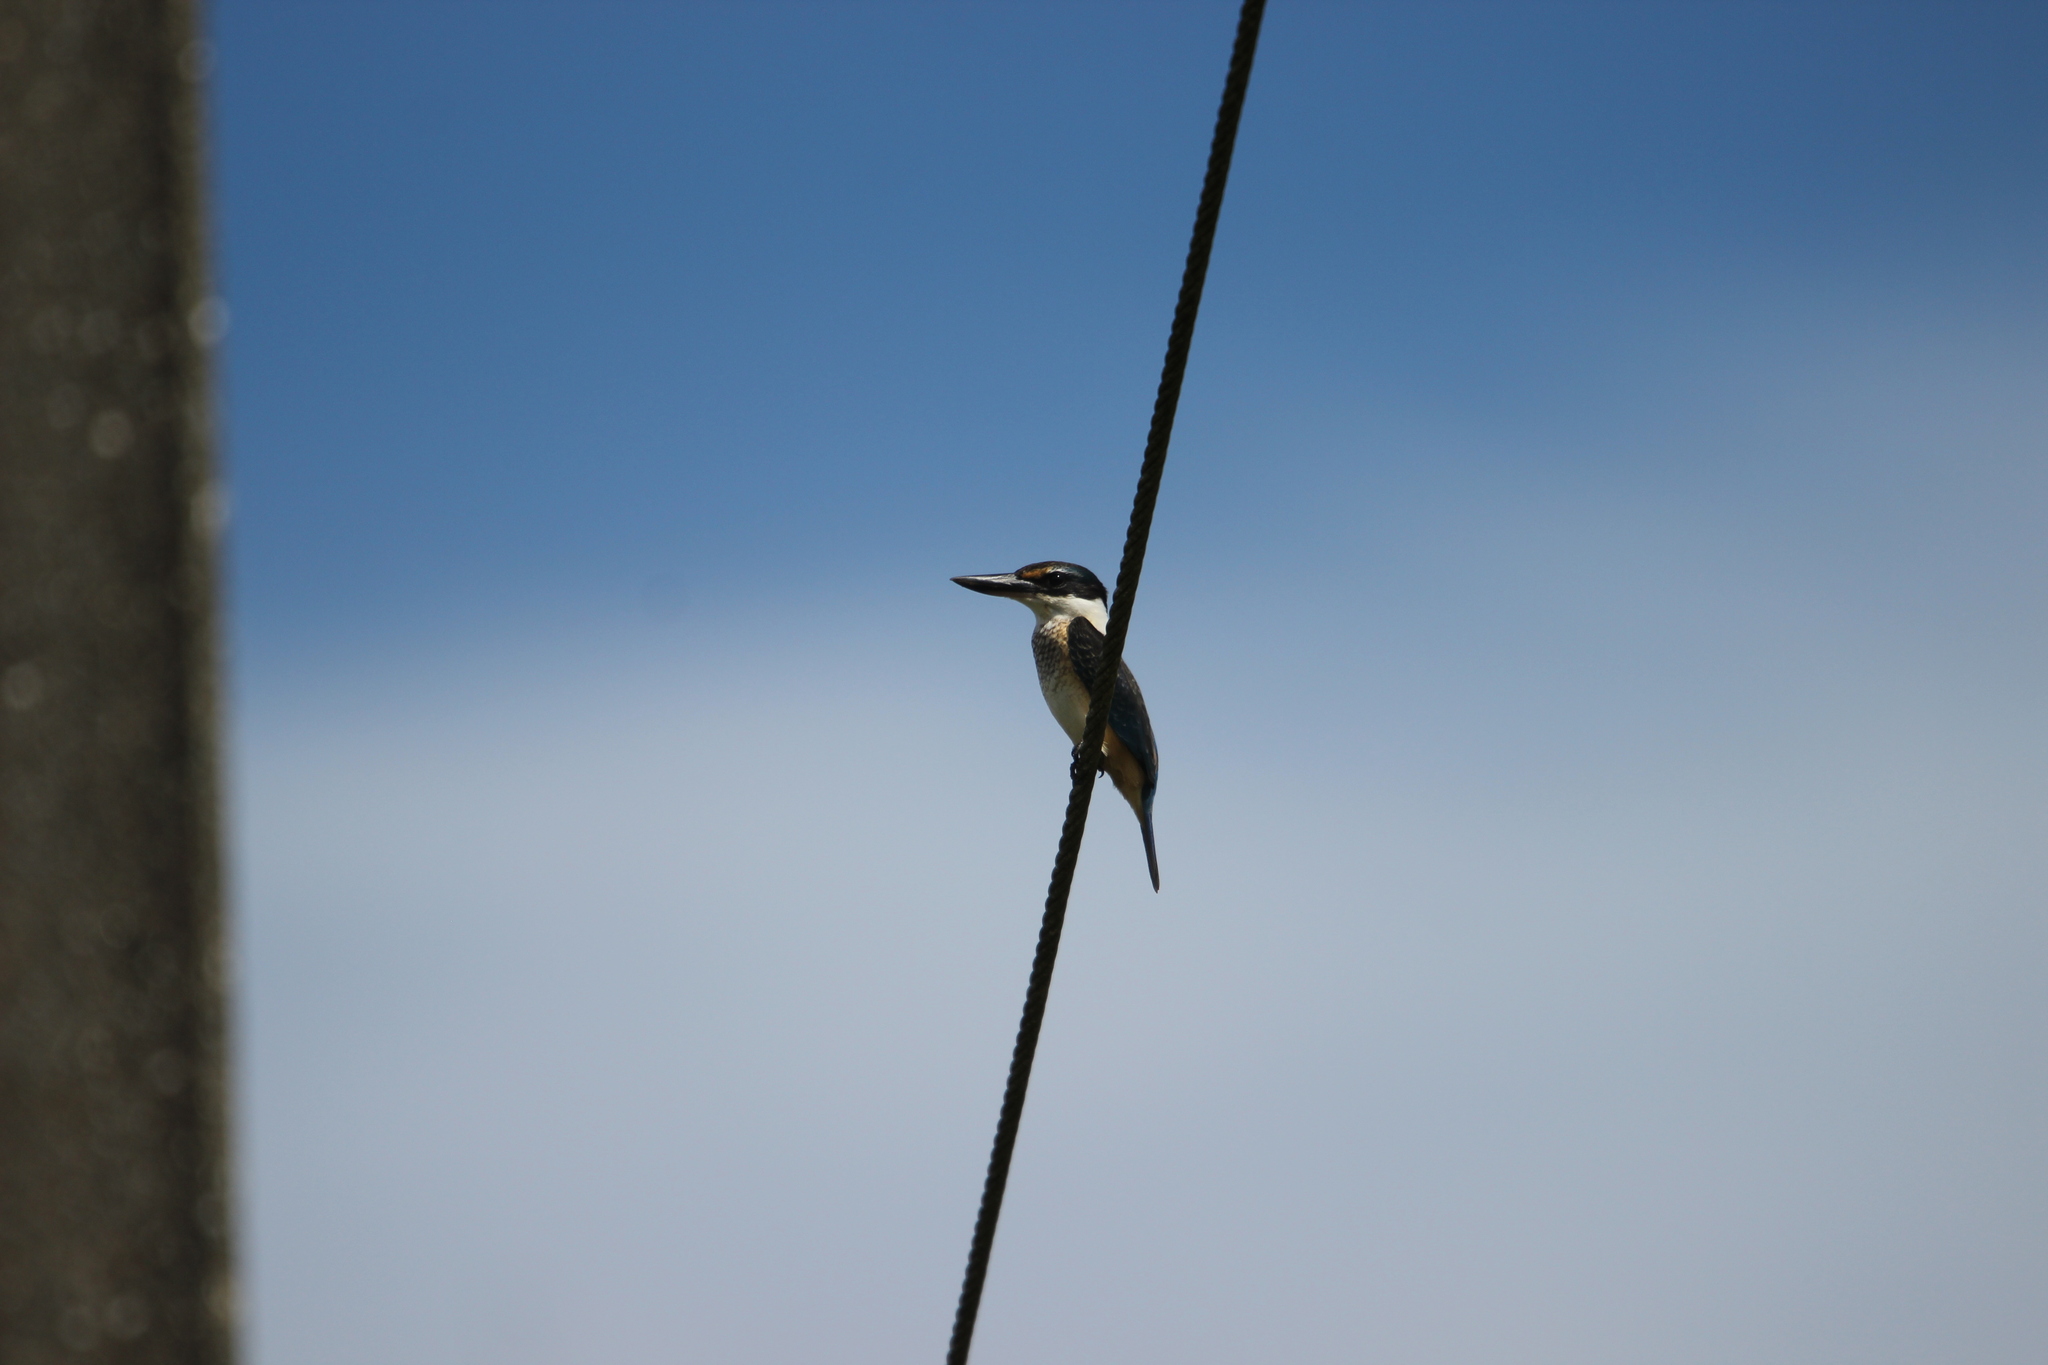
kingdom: Animalia
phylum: Chordata
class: Aves
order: Coraciiformes
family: Alcedinidae
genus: Todiramphus
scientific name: Todiramphus sanctus
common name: Sacred kingfisher
